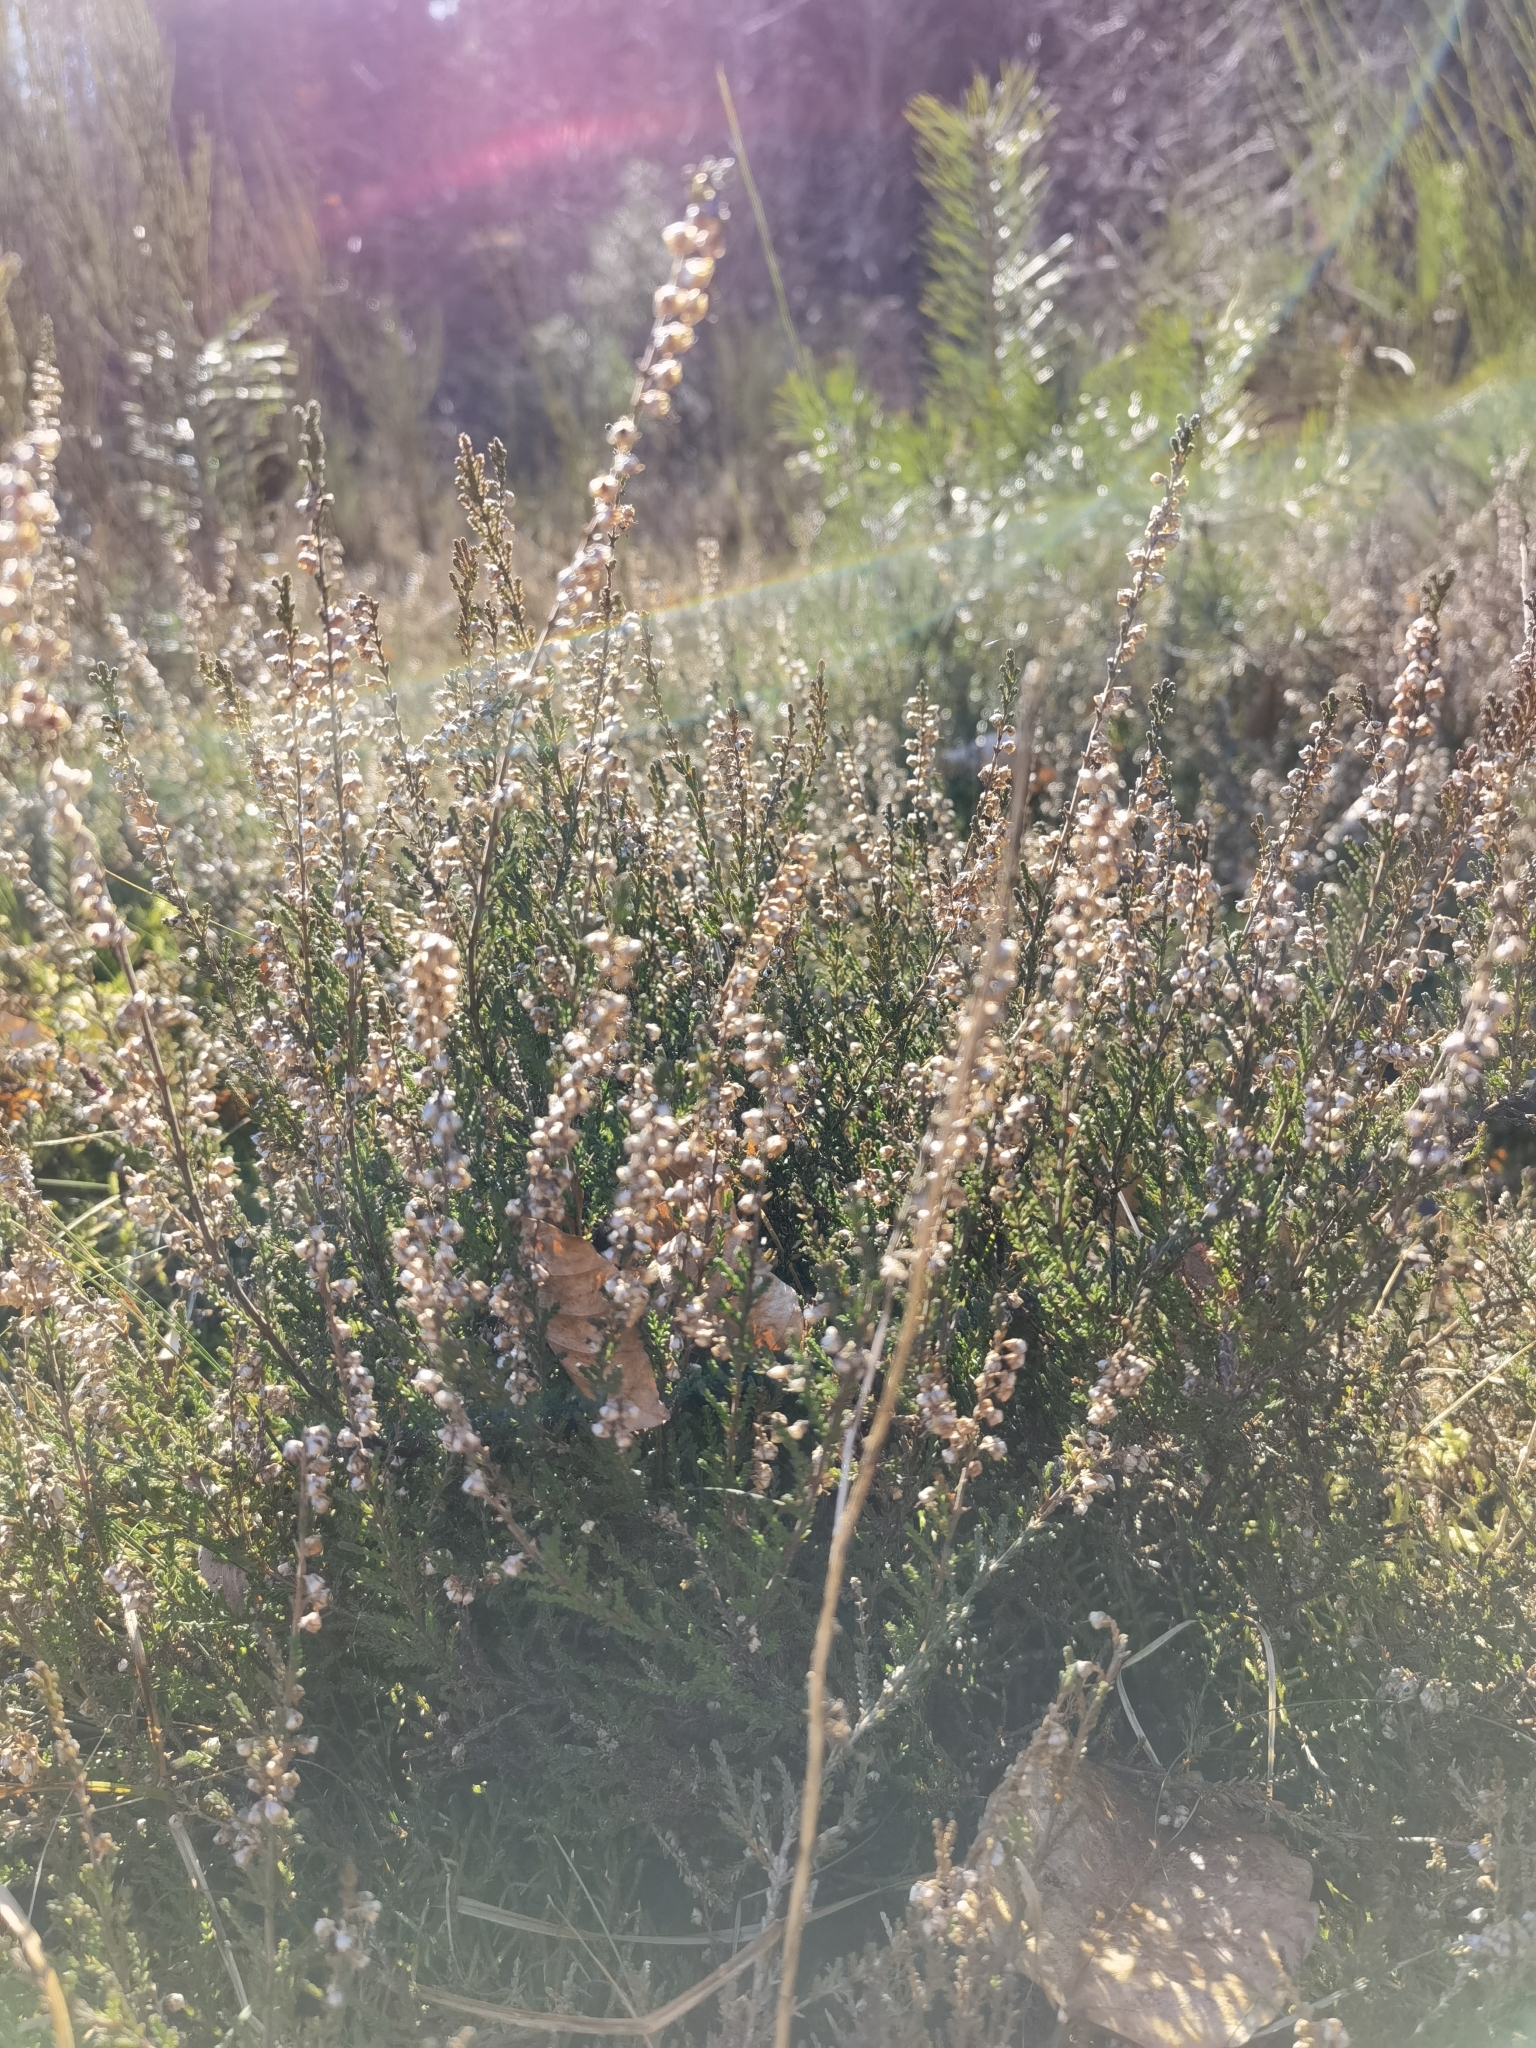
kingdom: Plantae
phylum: Tracheophyta
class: Magnoliopsida
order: Ericales
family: Ericaceae
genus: Calluna
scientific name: Calluna vulgaris
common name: Heather
